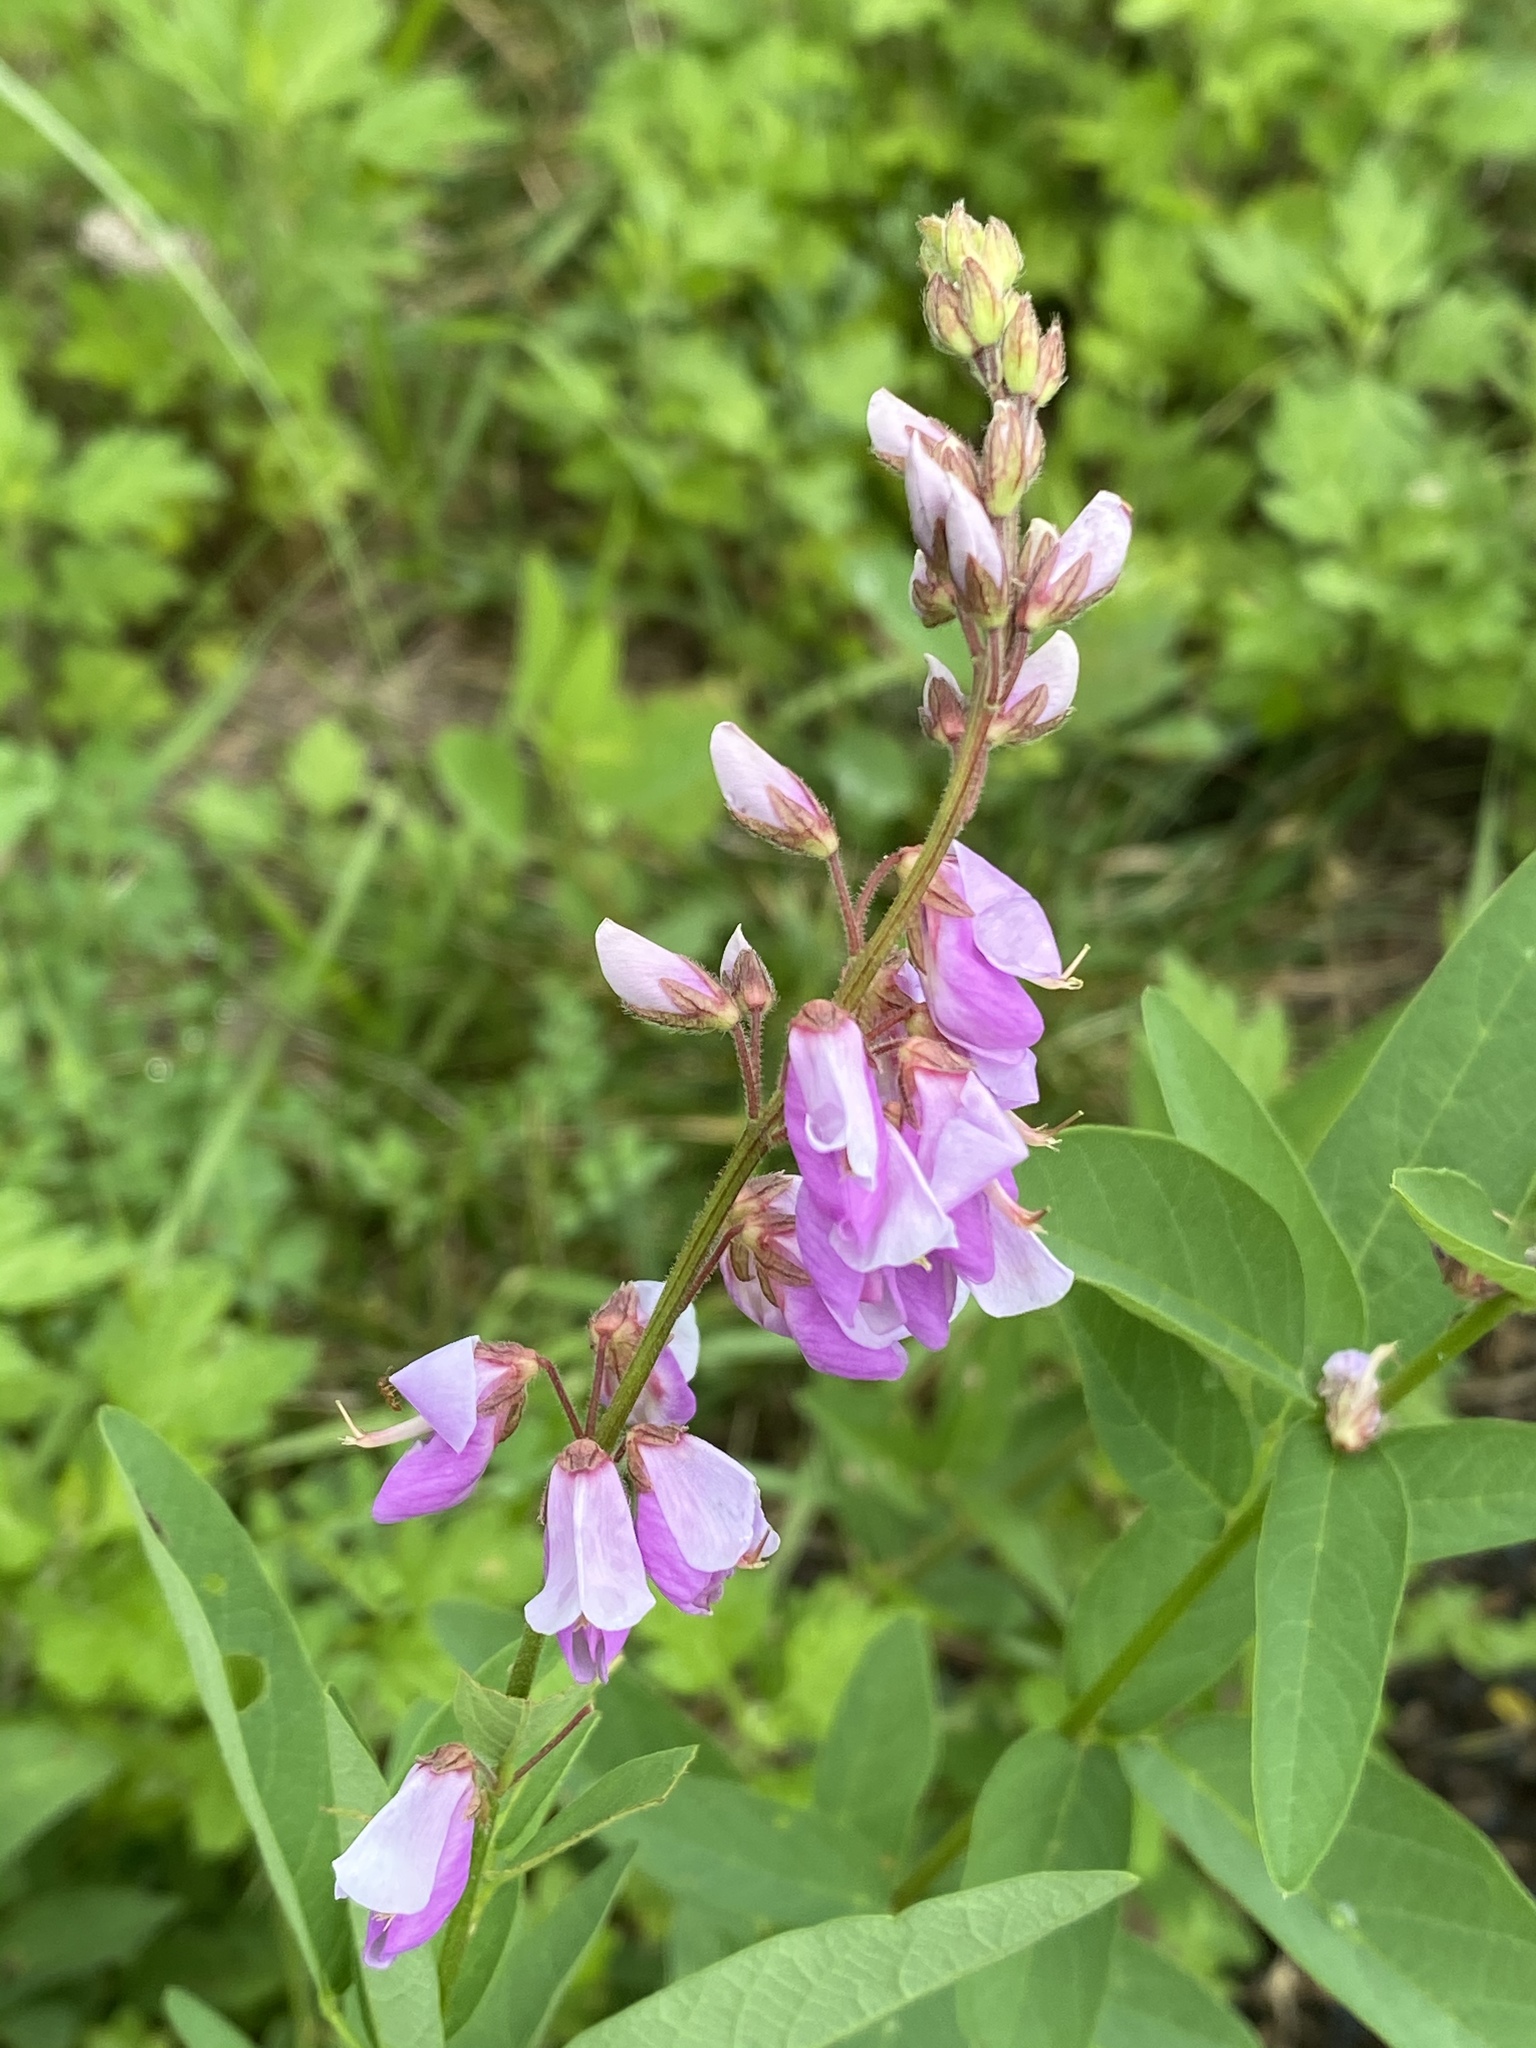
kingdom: Plantae
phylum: Tracheophyta
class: Magnoliopsida
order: Fabales
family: Fabaceae
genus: Desmodium
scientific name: Desmodium canadense
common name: Canada tick-trefoil
